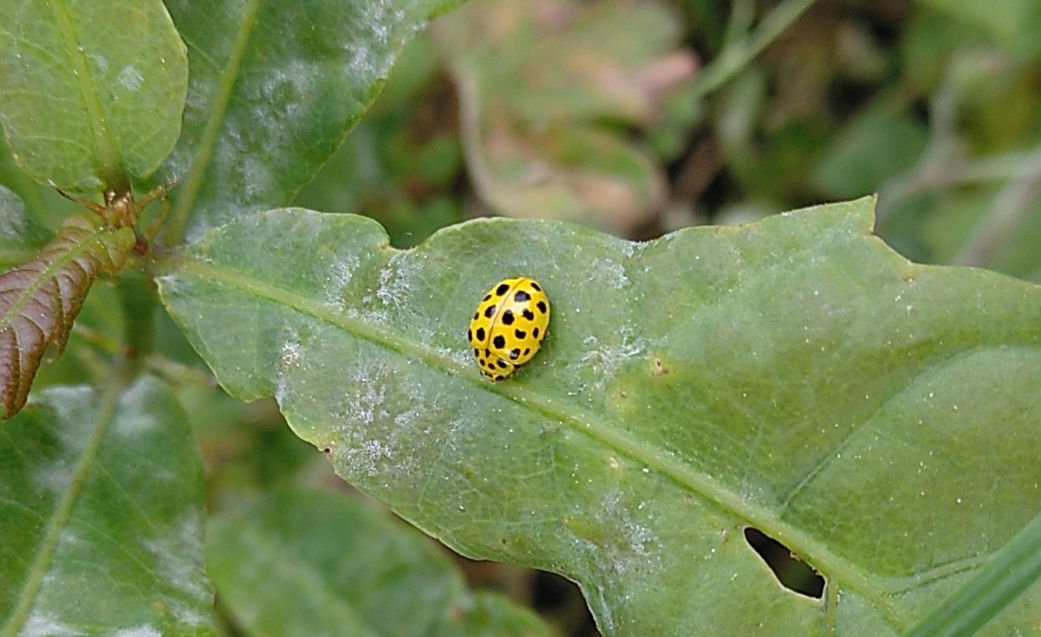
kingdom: Animalia
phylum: Arthropoda
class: Insecta
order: Coleoptera
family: Coccinellidae
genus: Psyllobora
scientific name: Psyllobora vigintiduopunctata
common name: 22-spot ladybird
